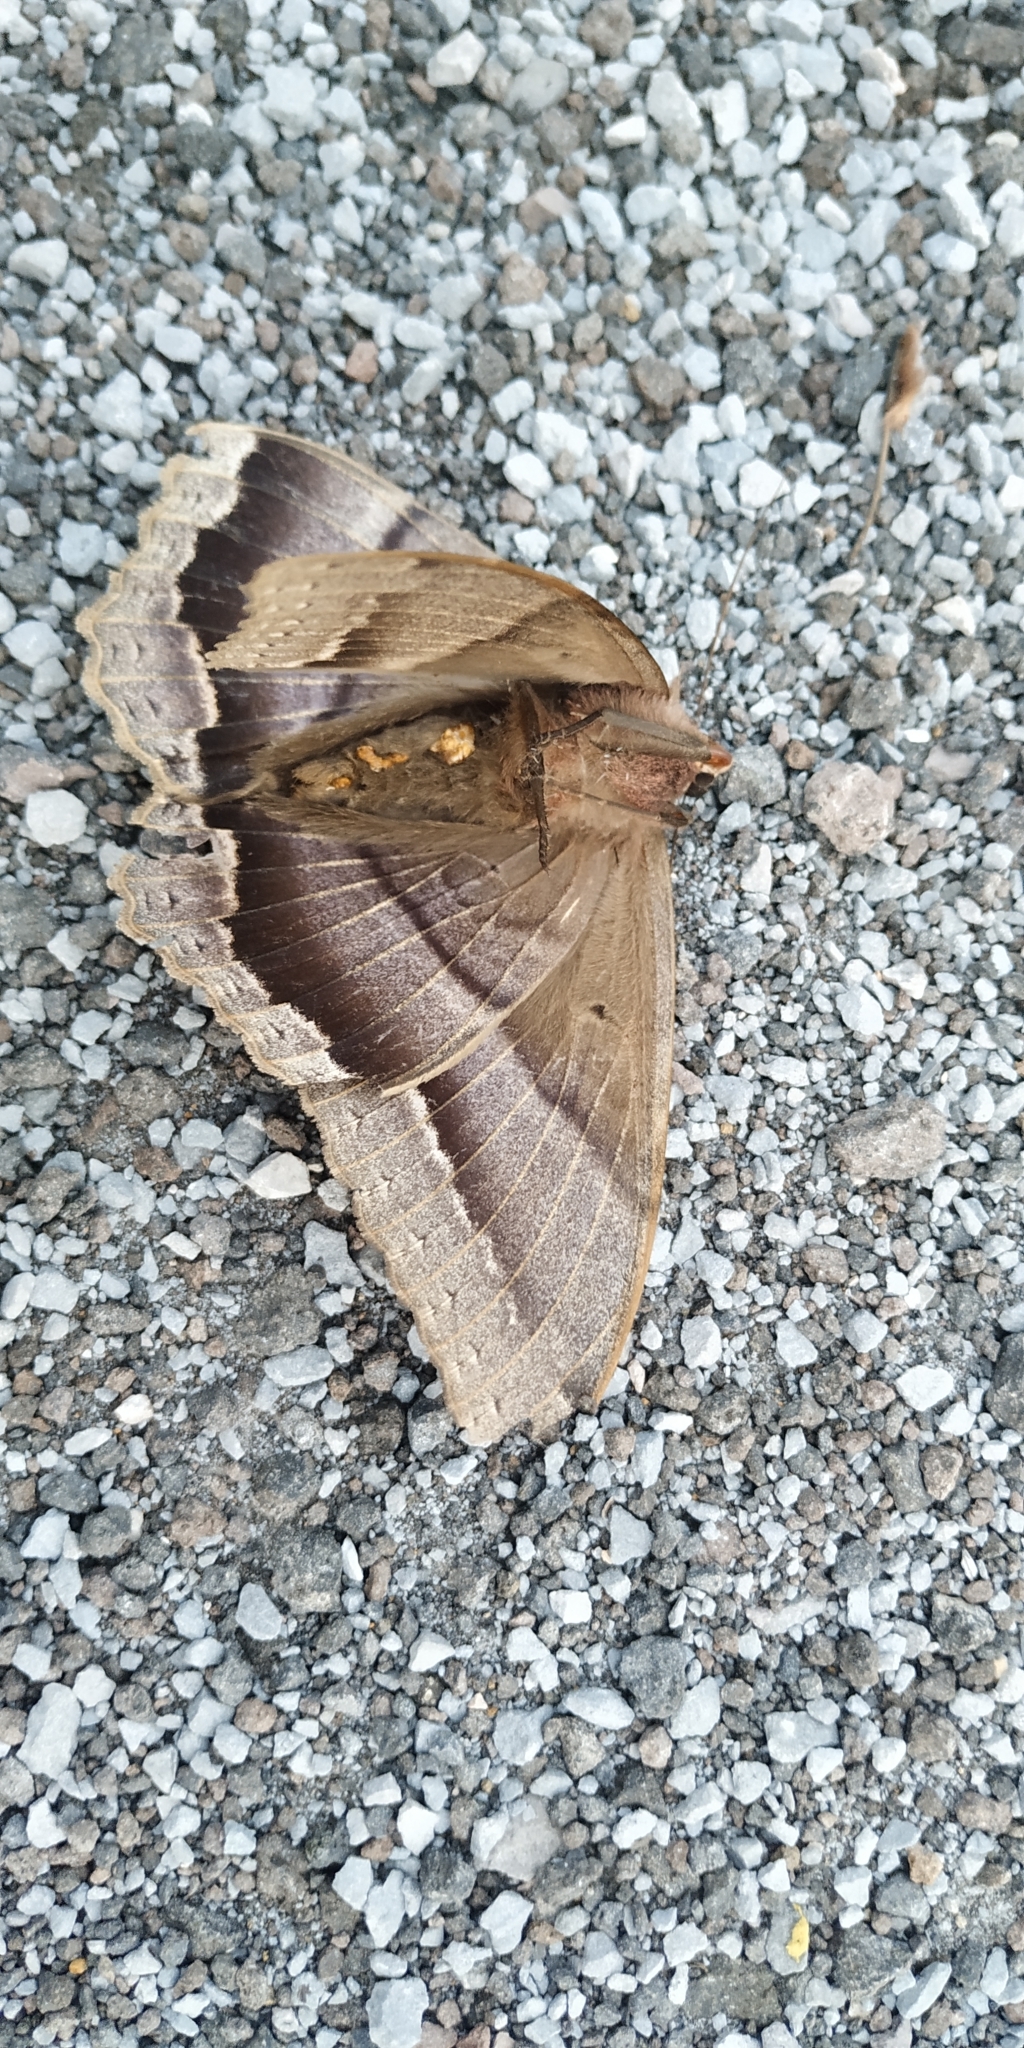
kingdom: Animalia
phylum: Arthropoda
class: Insecta
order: Lepidoptera
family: Erebidae
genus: Ascalapha
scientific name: Ascalapha odorata
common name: Black witch
